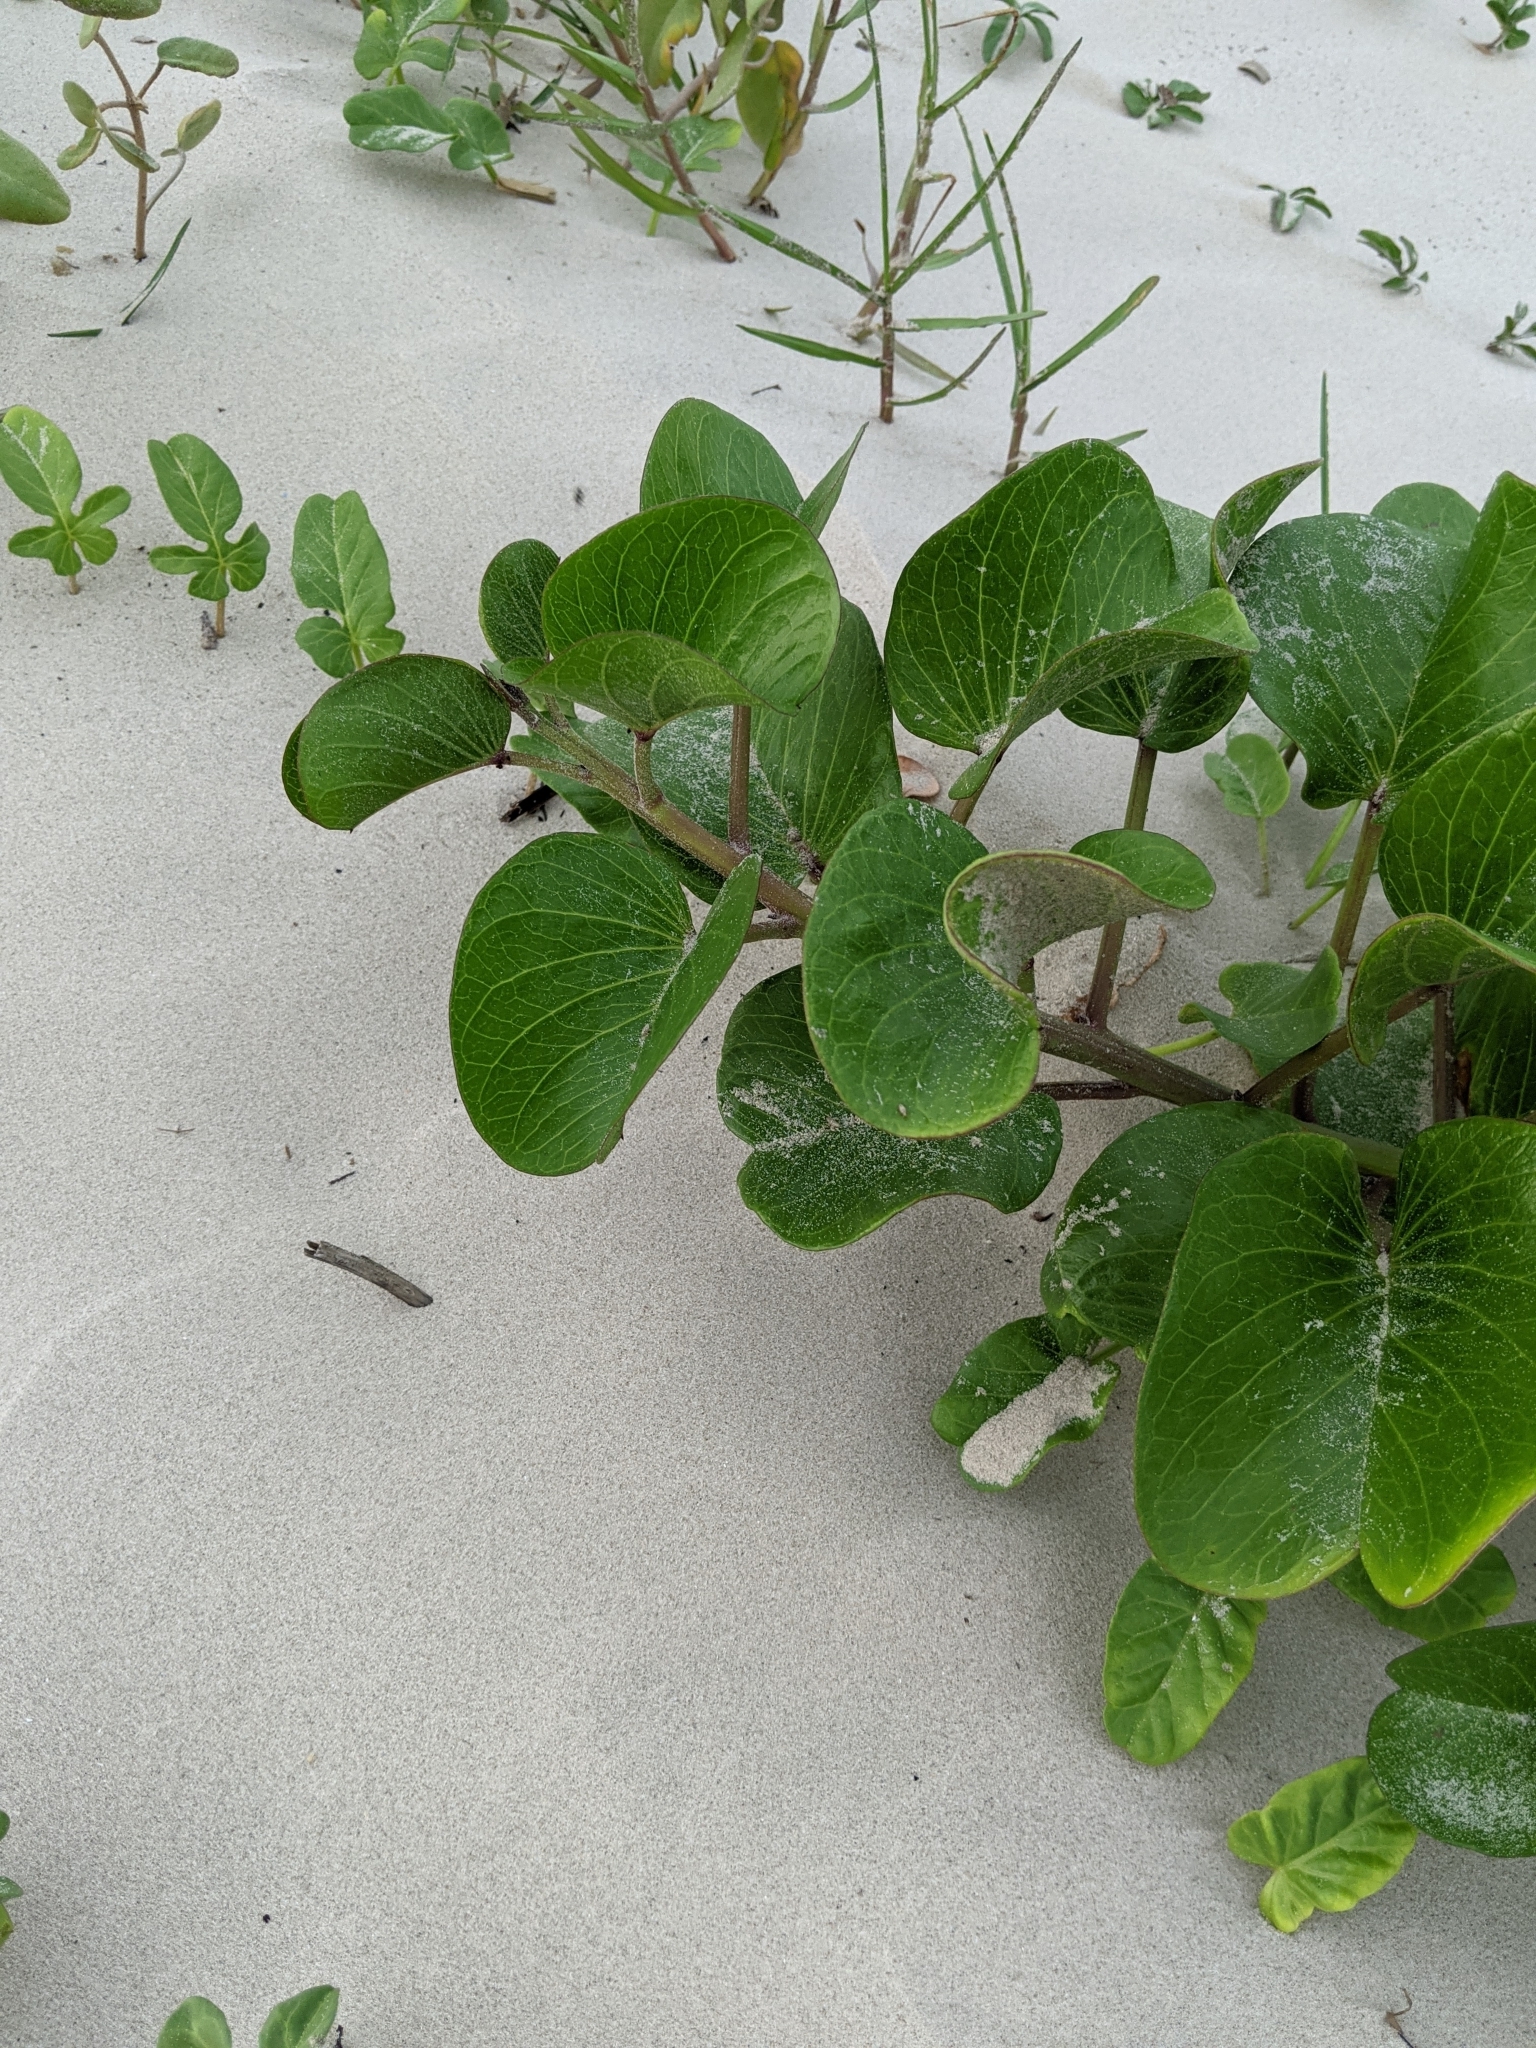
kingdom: Plantae
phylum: Tracheophyta
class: Magnoliopsida
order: Solanales
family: Convolvulaceae
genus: Ipomoea
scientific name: Ipomoea pes-caprae
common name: Beach morning glory
